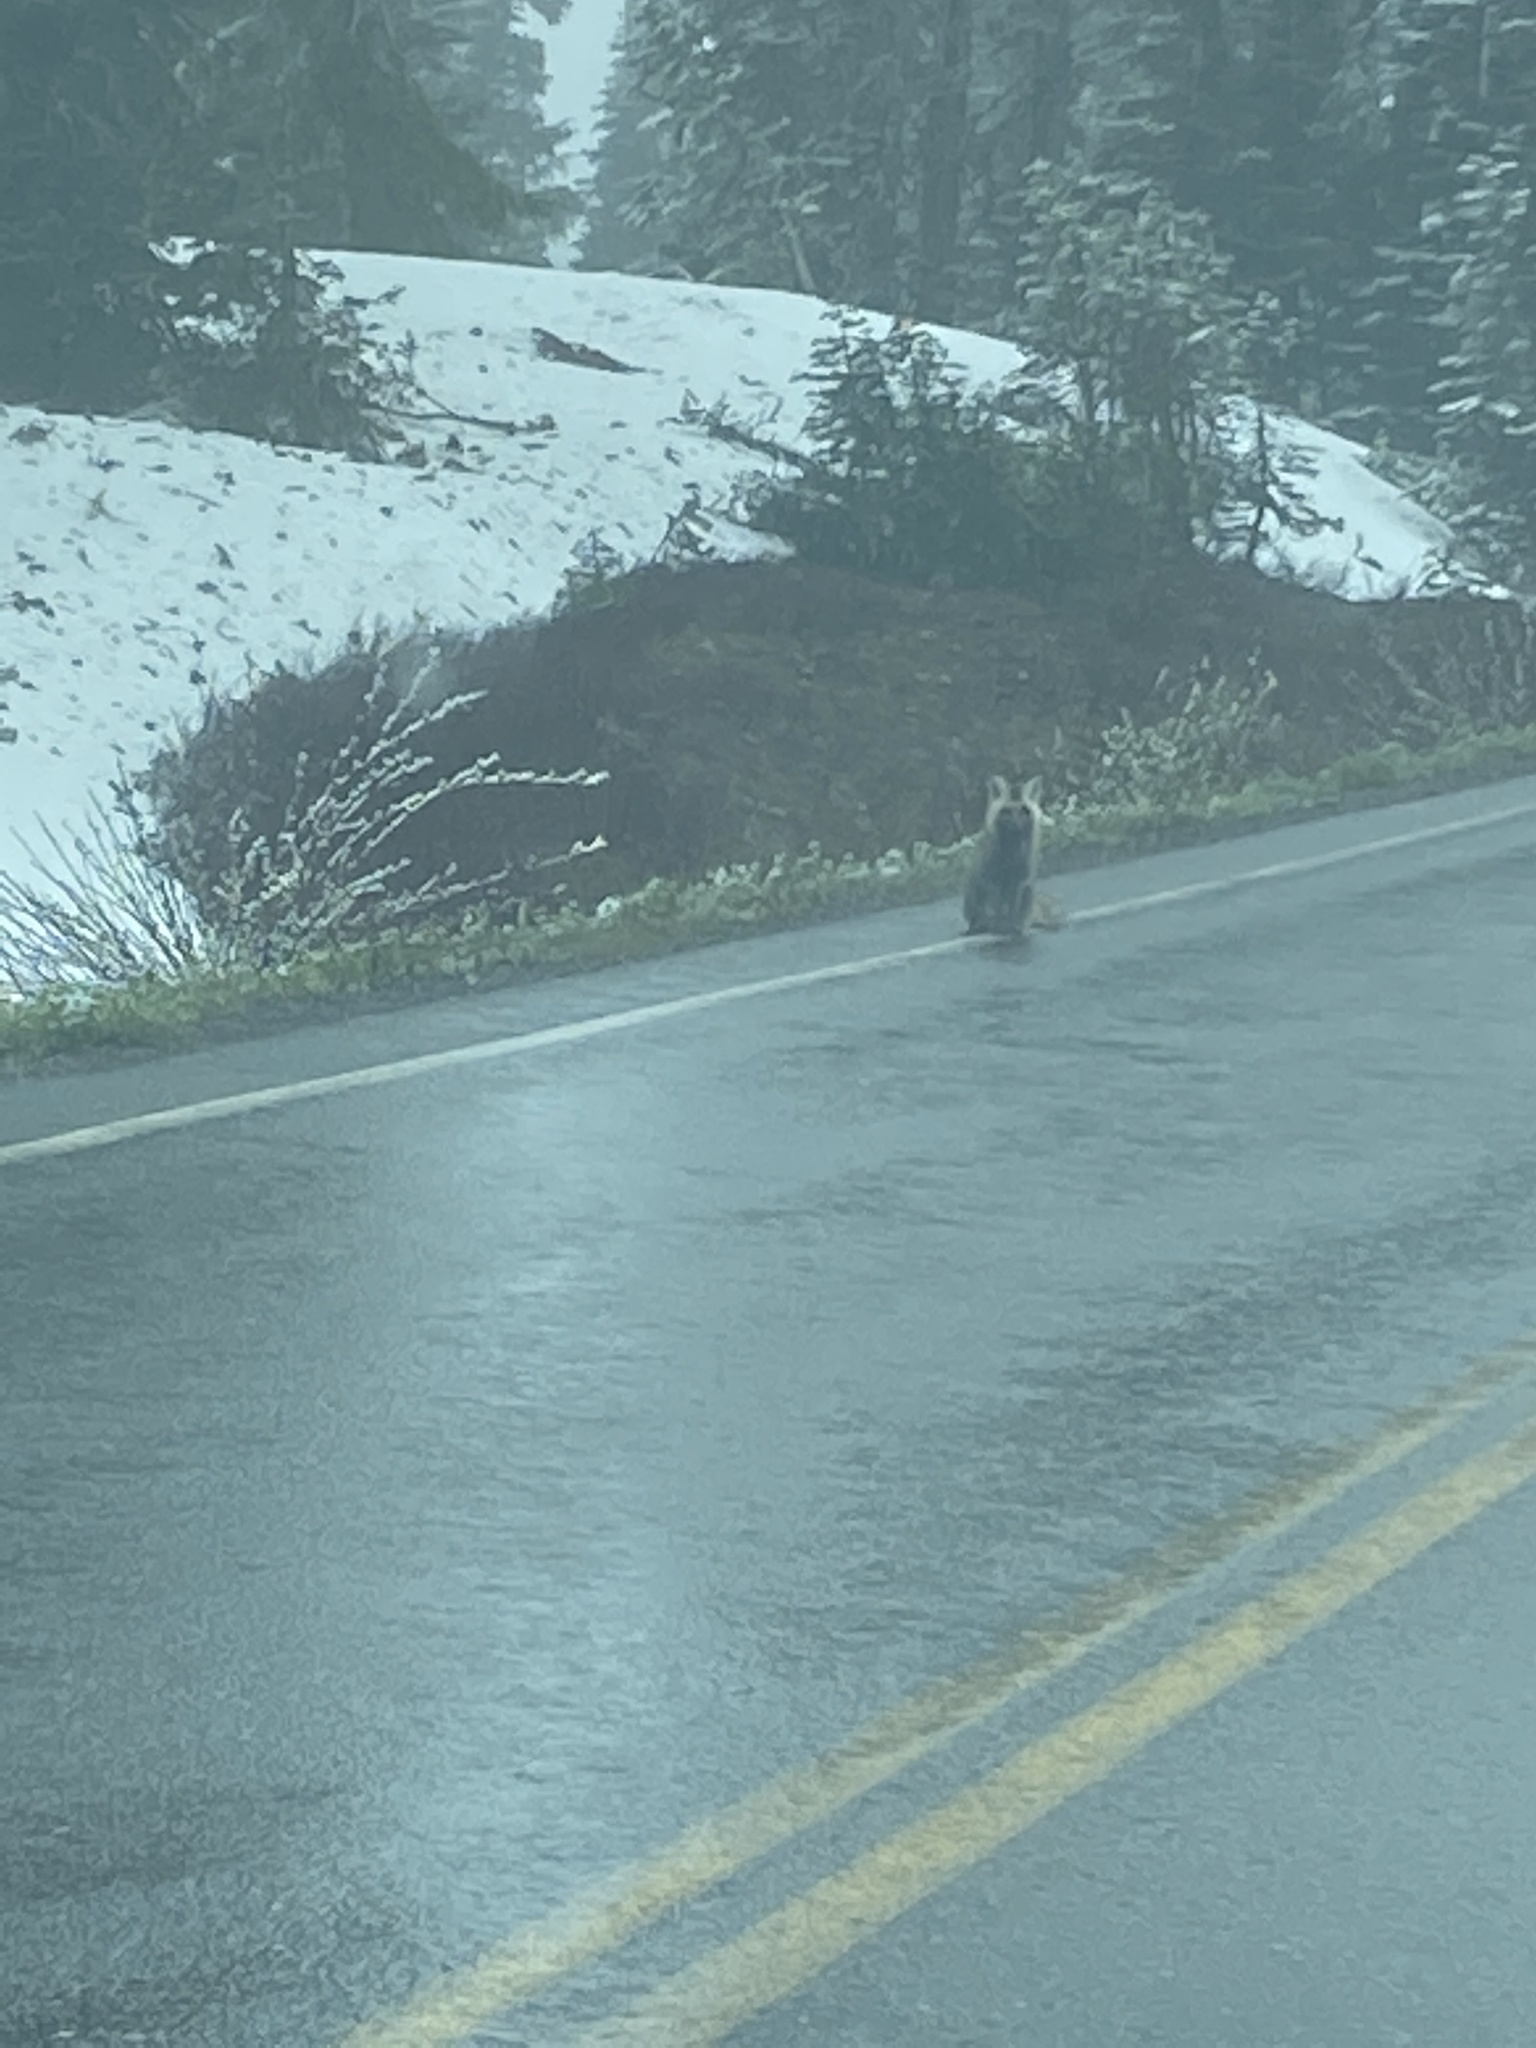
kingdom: Animalia
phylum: Chordata
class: Mammalia
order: Carnivora
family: Canidae
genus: Vulpes
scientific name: Vulpes vulpes
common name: Red fox
